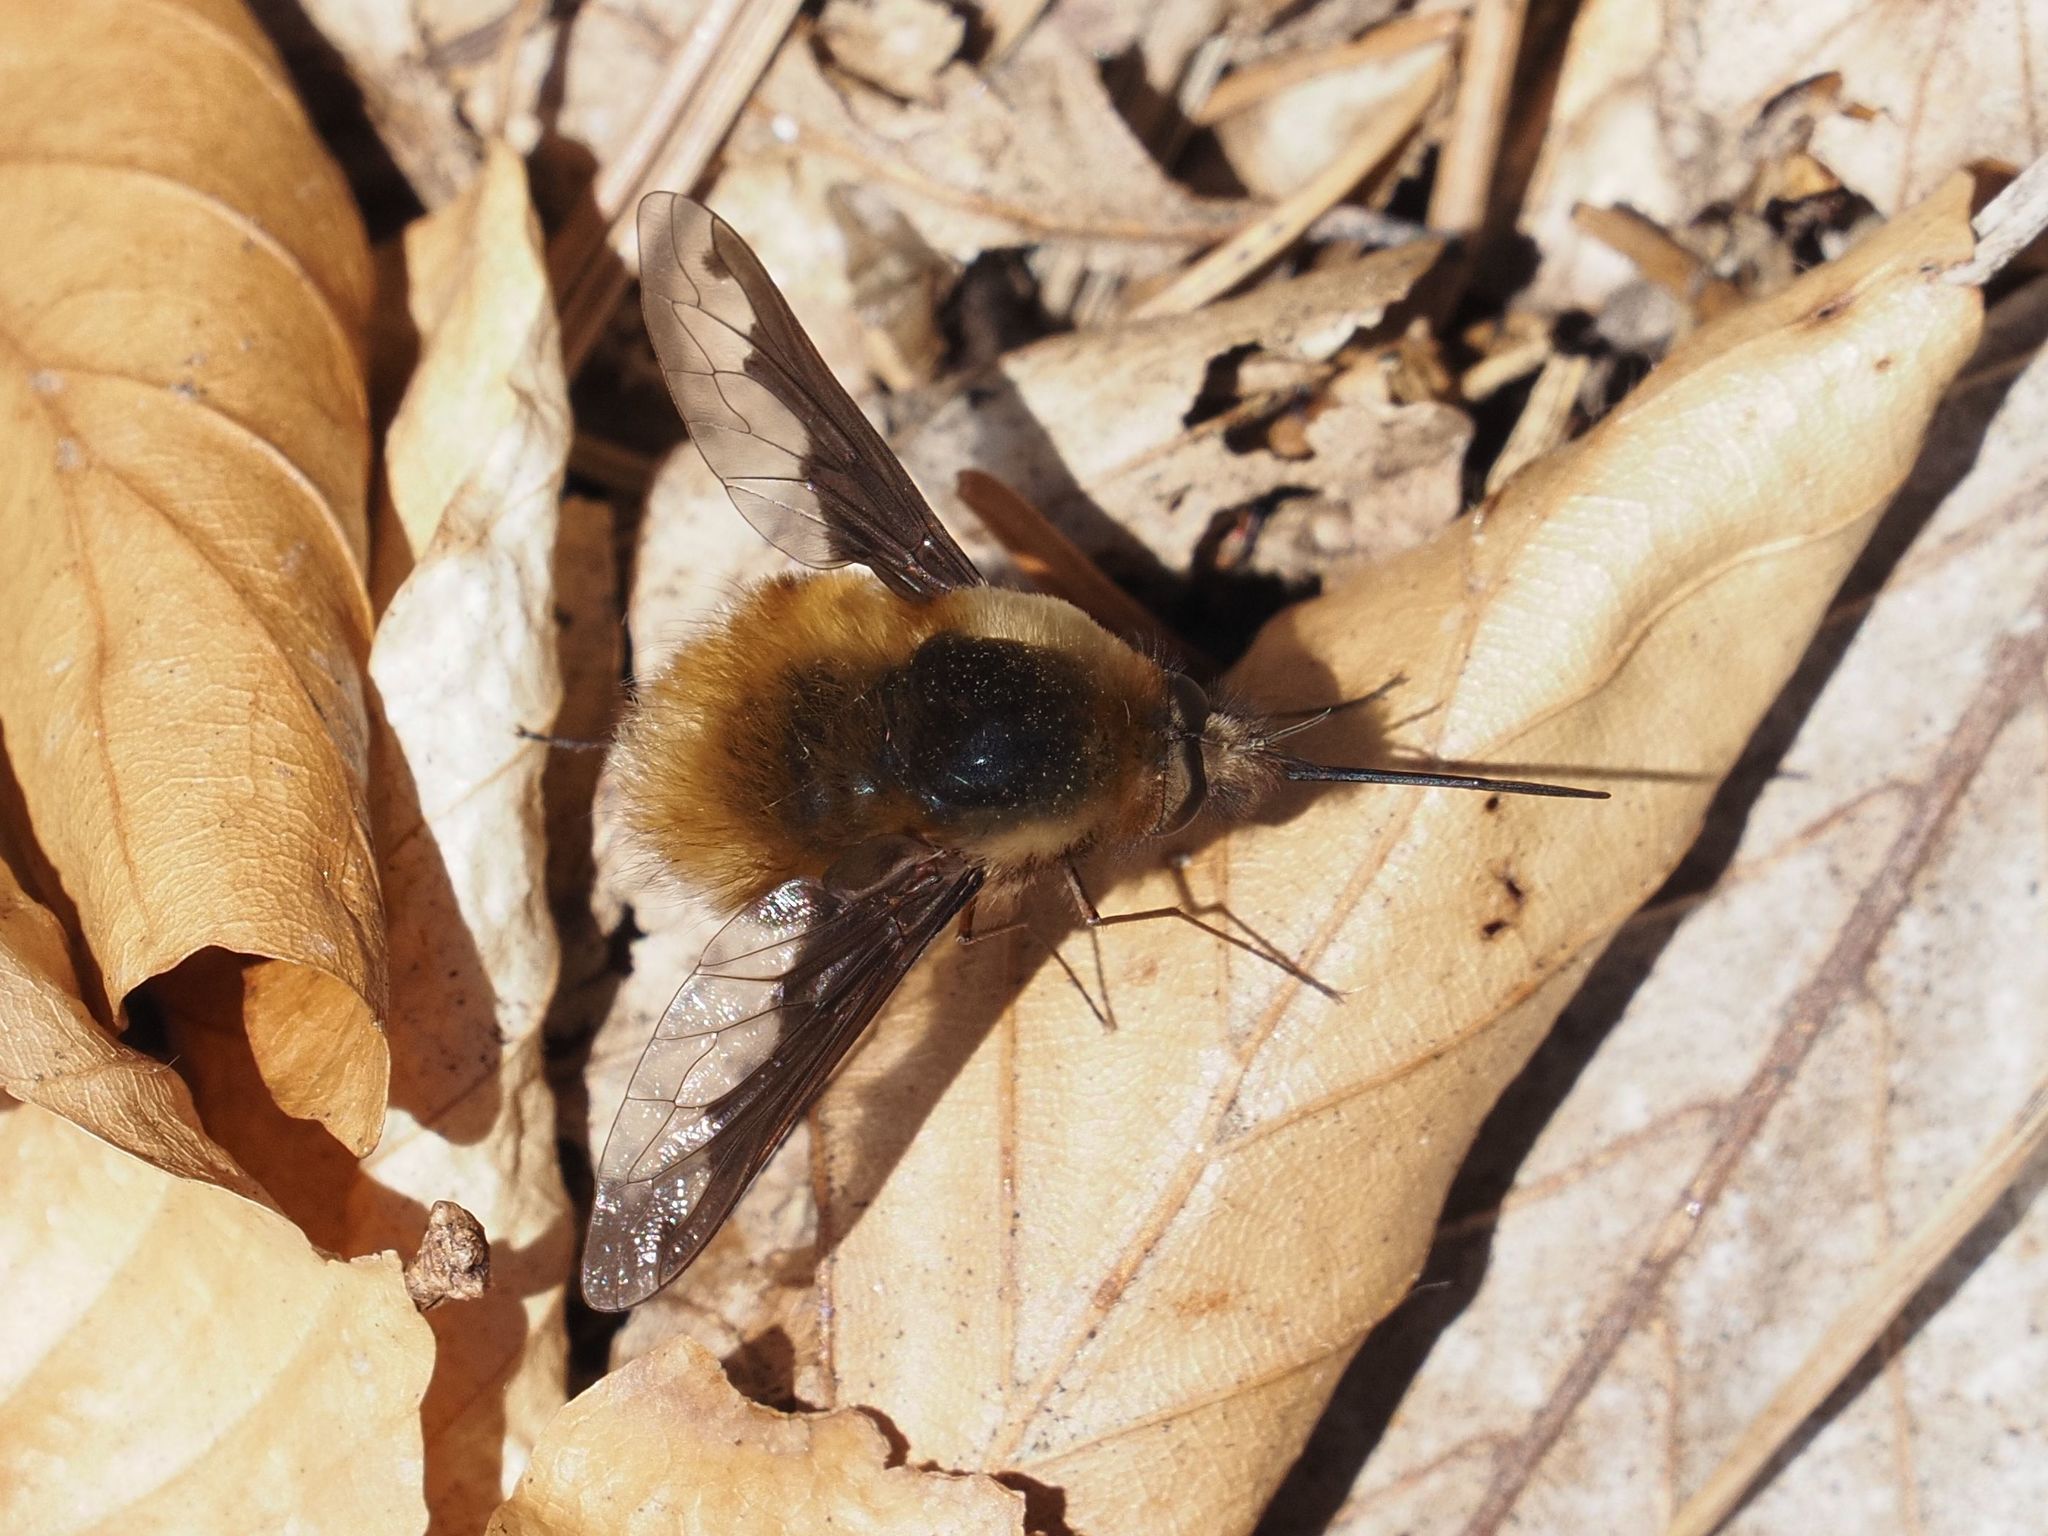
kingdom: Animalia
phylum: Arthropoda
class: Insecta
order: Diptera
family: Bombyliidae
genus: Bombylius
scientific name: Bombylius major
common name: Bee fly
